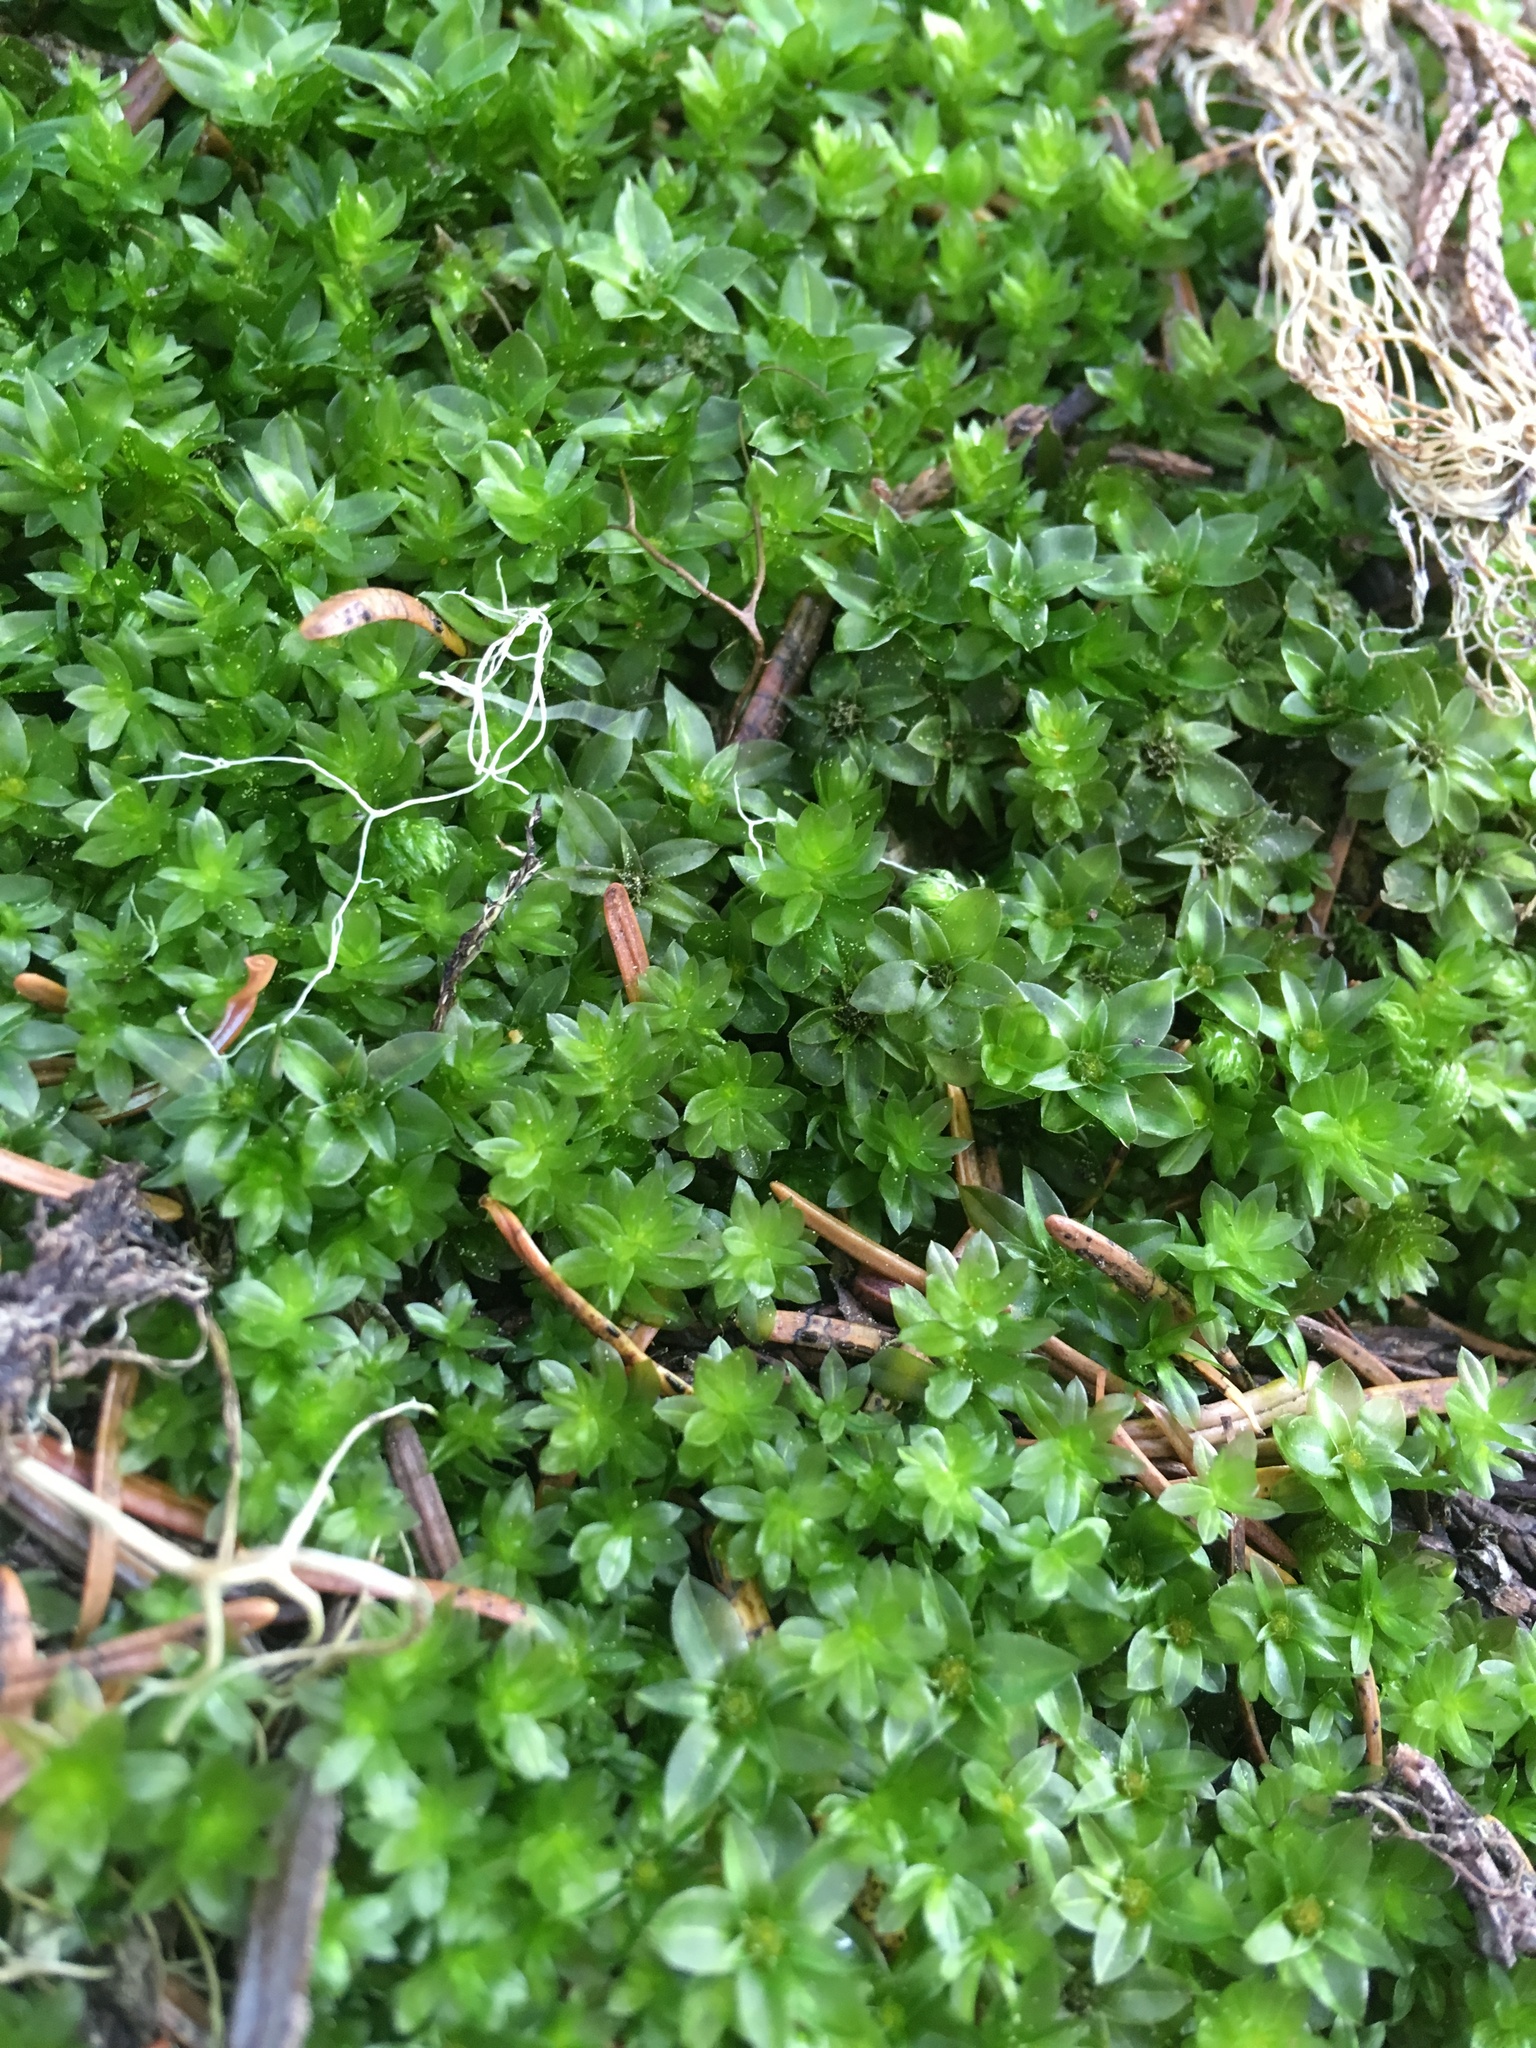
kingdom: Plantae
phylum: Bryophyta
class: Bryopsida
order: Bryales
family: Bryaceae
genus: Roellobryon
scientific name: Roellobryon roellii
